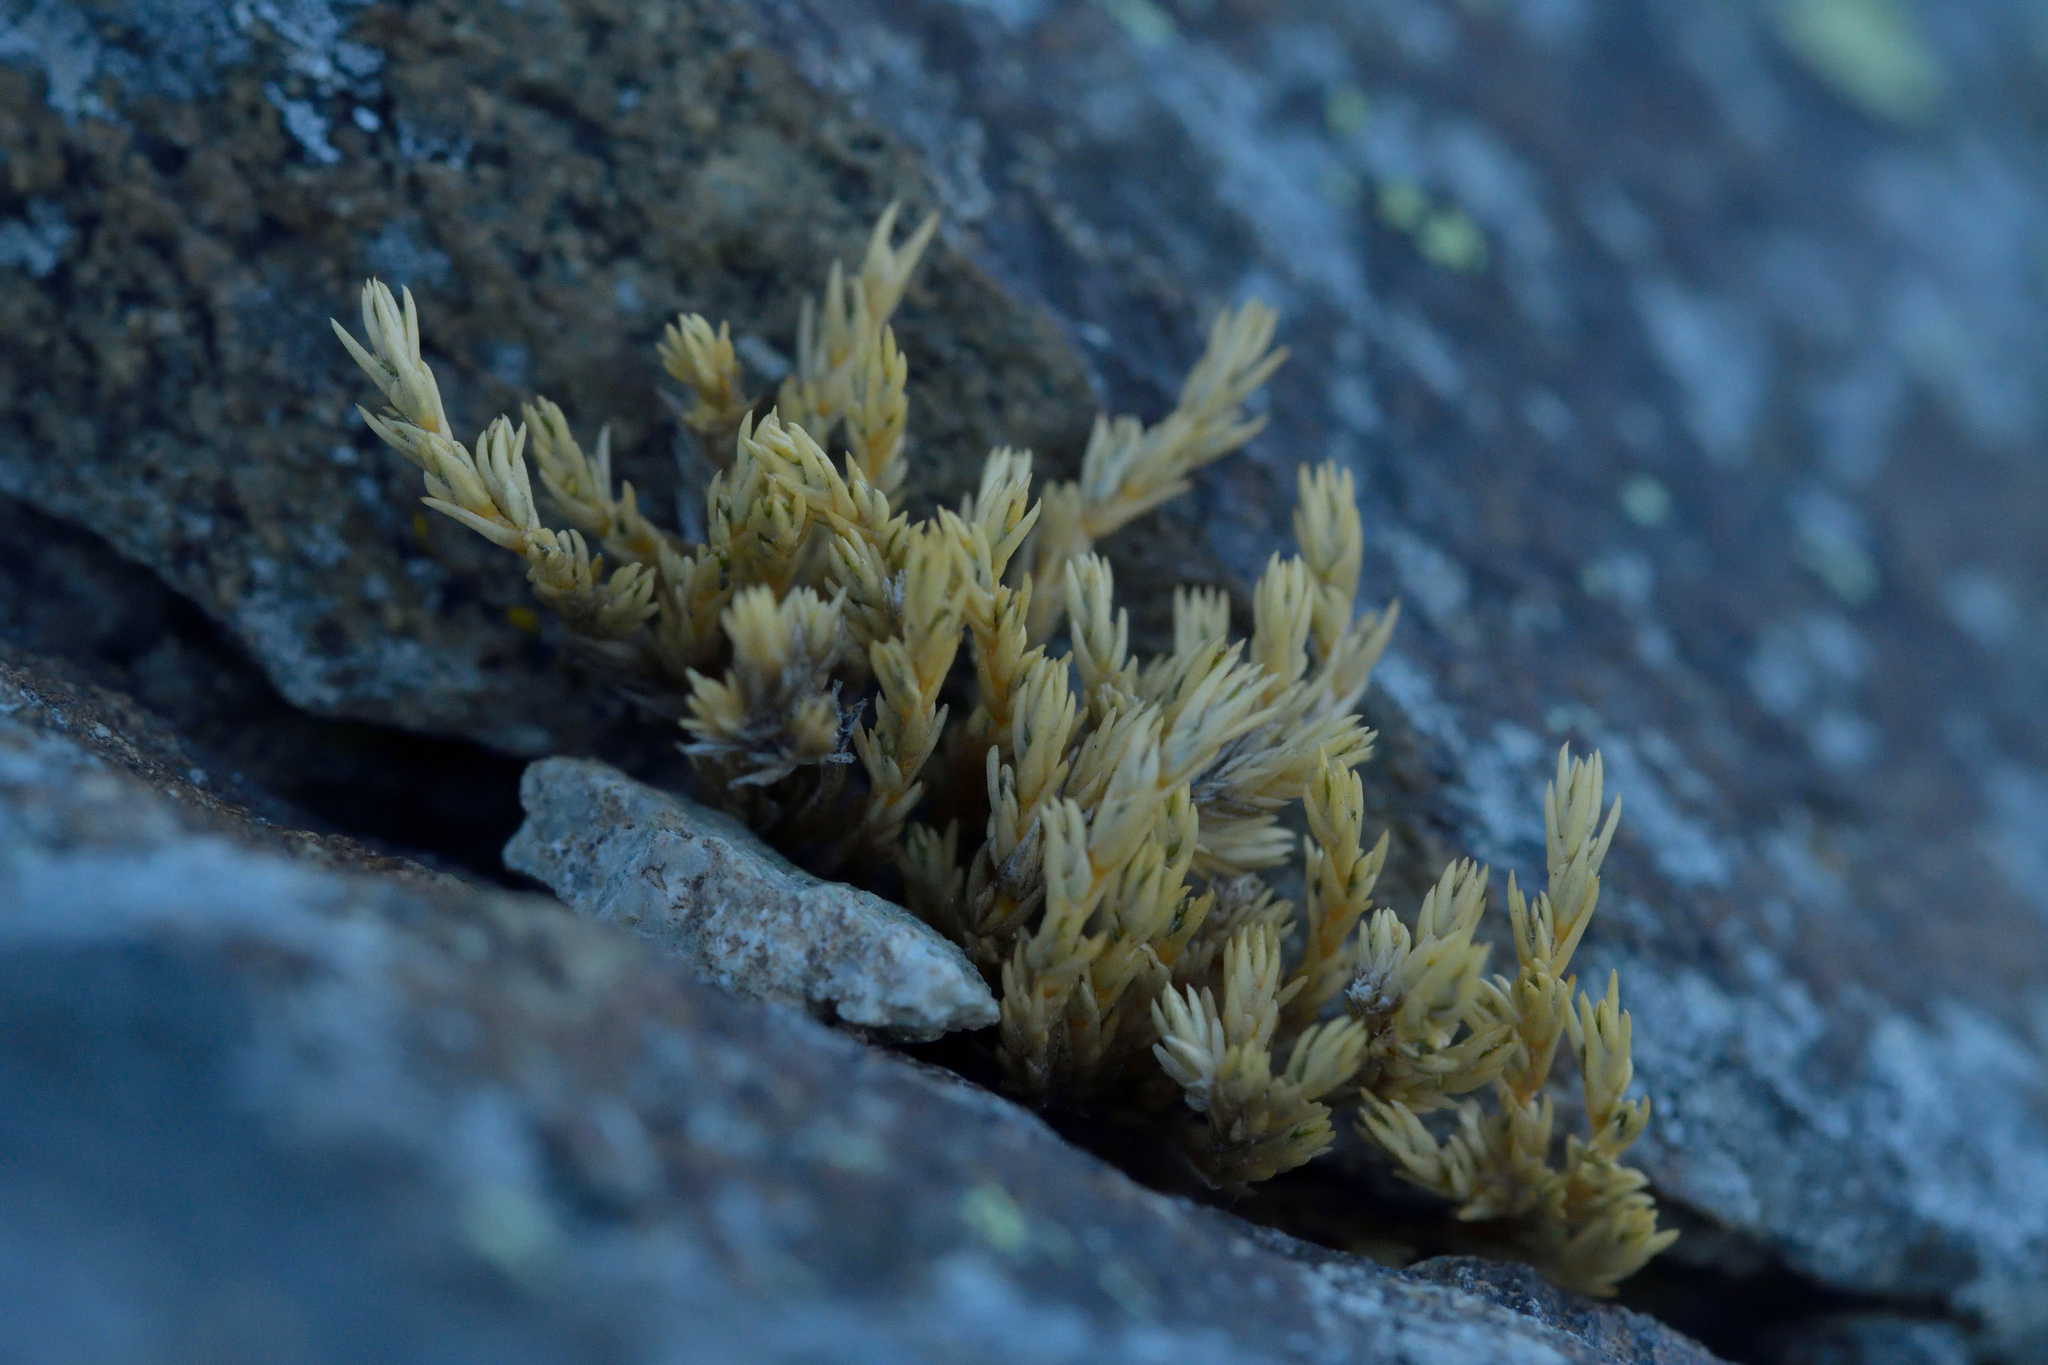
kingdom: Plantae
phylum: Tracheophyta
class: Magnoliopsida
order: Caryophyllales
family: Caryophyllaceae
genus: Stellaria
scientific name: Stellaria gracilenta
